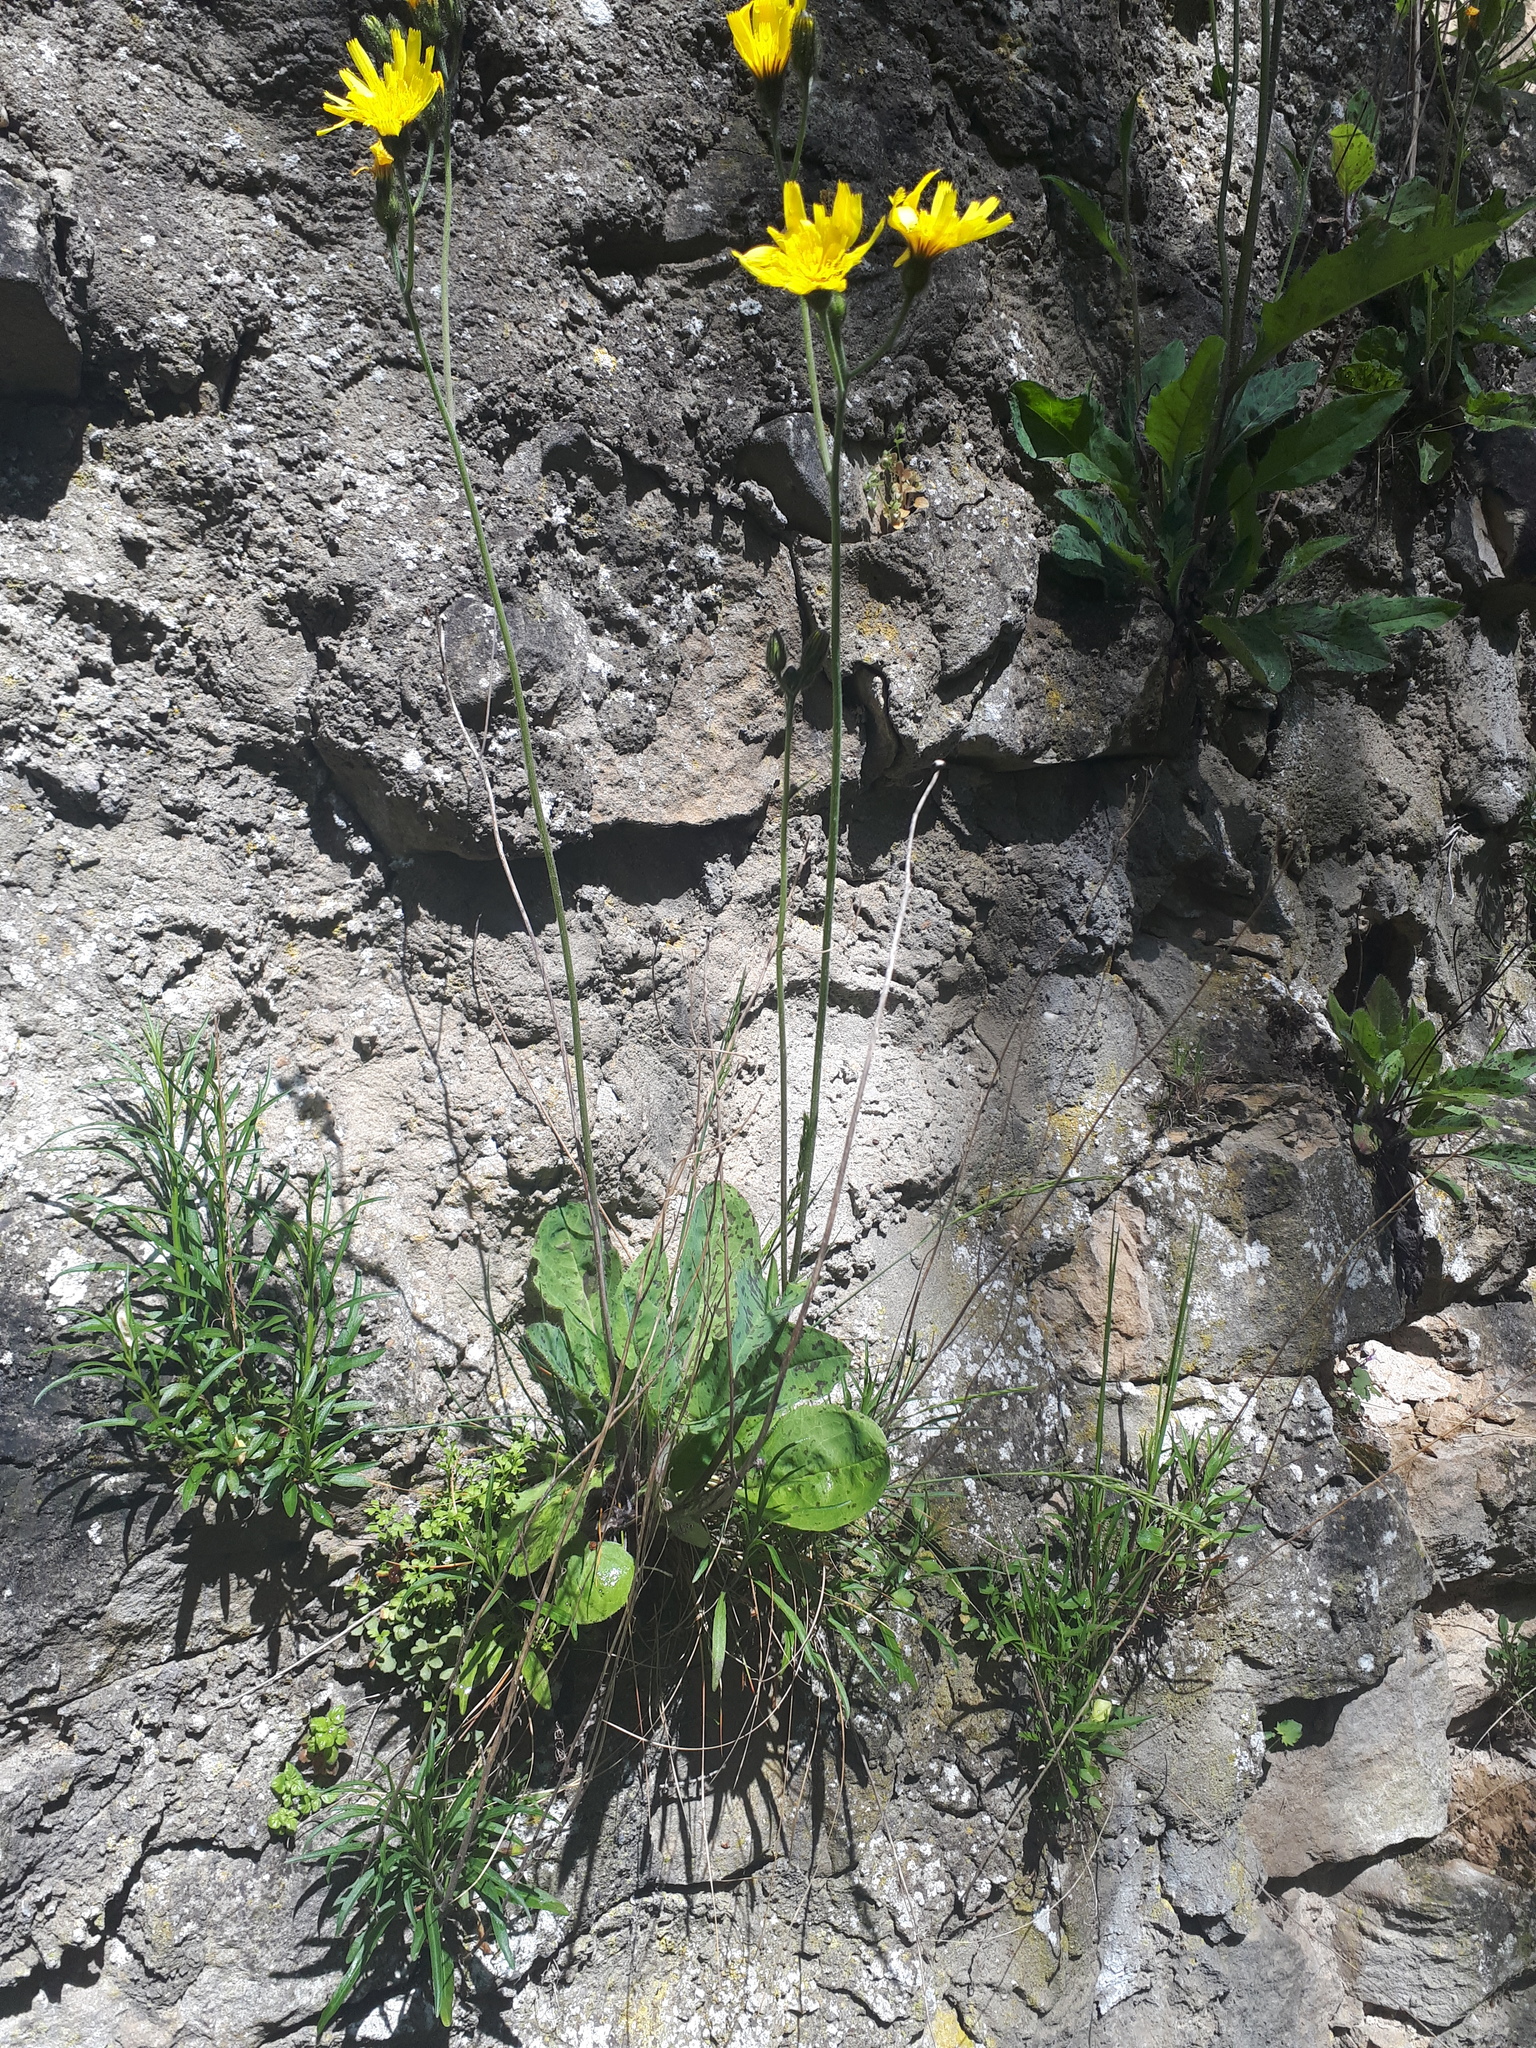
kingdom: Plantae
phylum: Tracheophyta
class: Magnoliopsida
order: Asterales
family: Asteraceae
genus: Hieracium
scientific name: Hieracium maculatum
